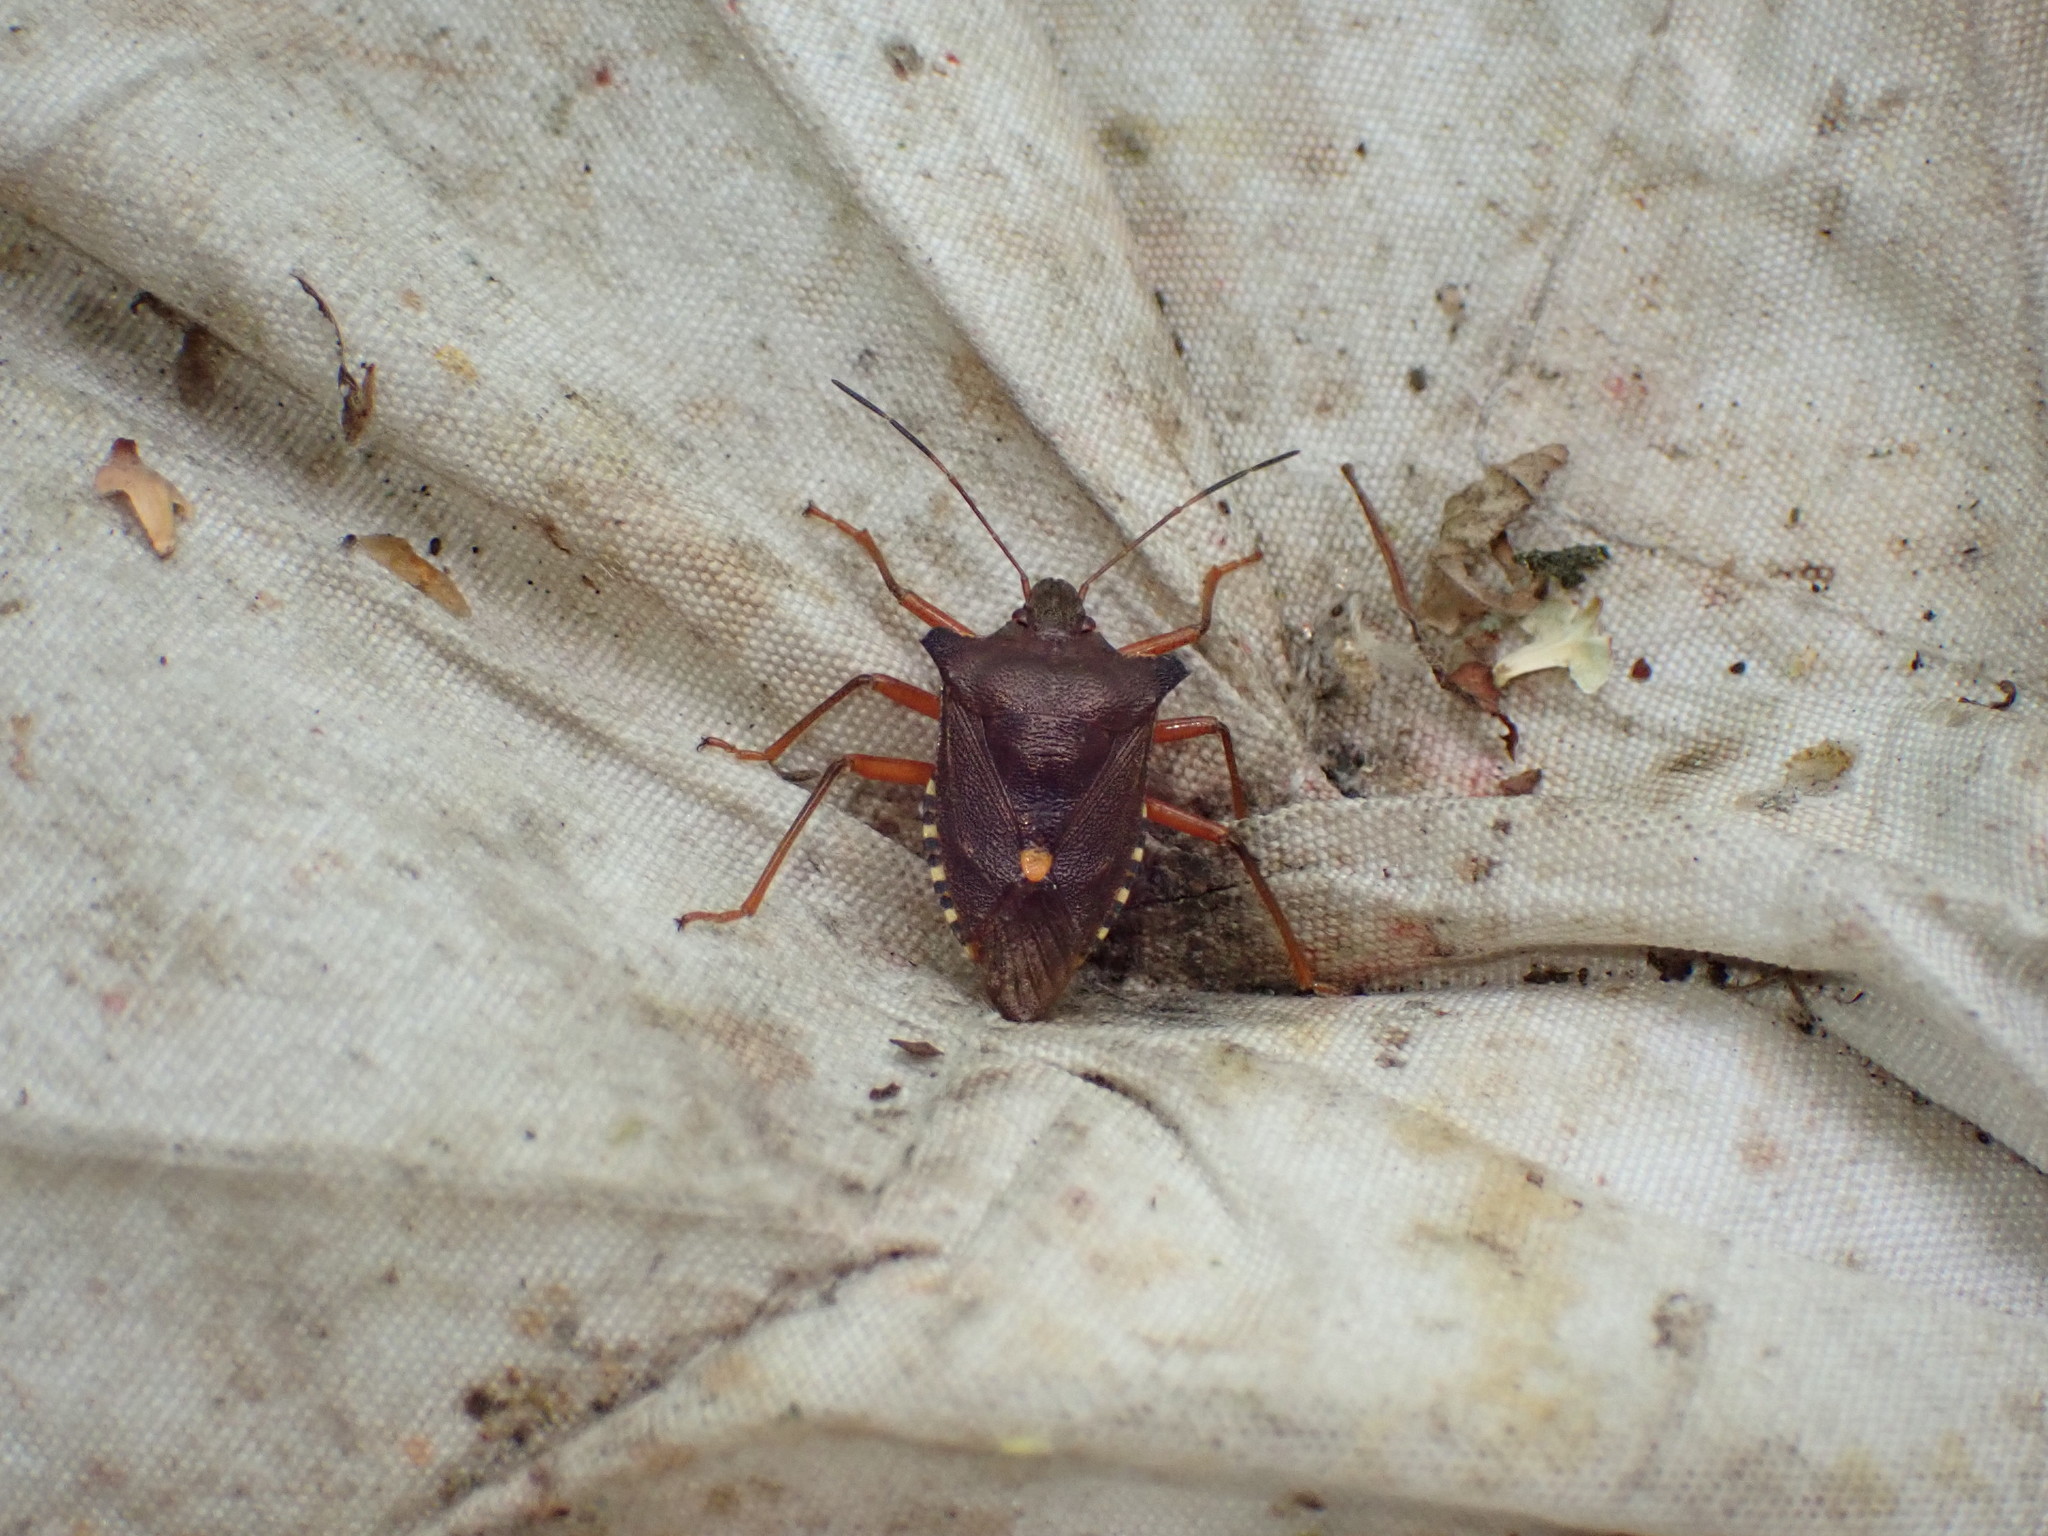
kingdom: Animalia
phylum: Arthropoda
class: Insecta
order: Hemiptera
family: Pentatomidae
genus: Pentatoma
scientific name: Pentatoma rufipes
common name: Forest bug
